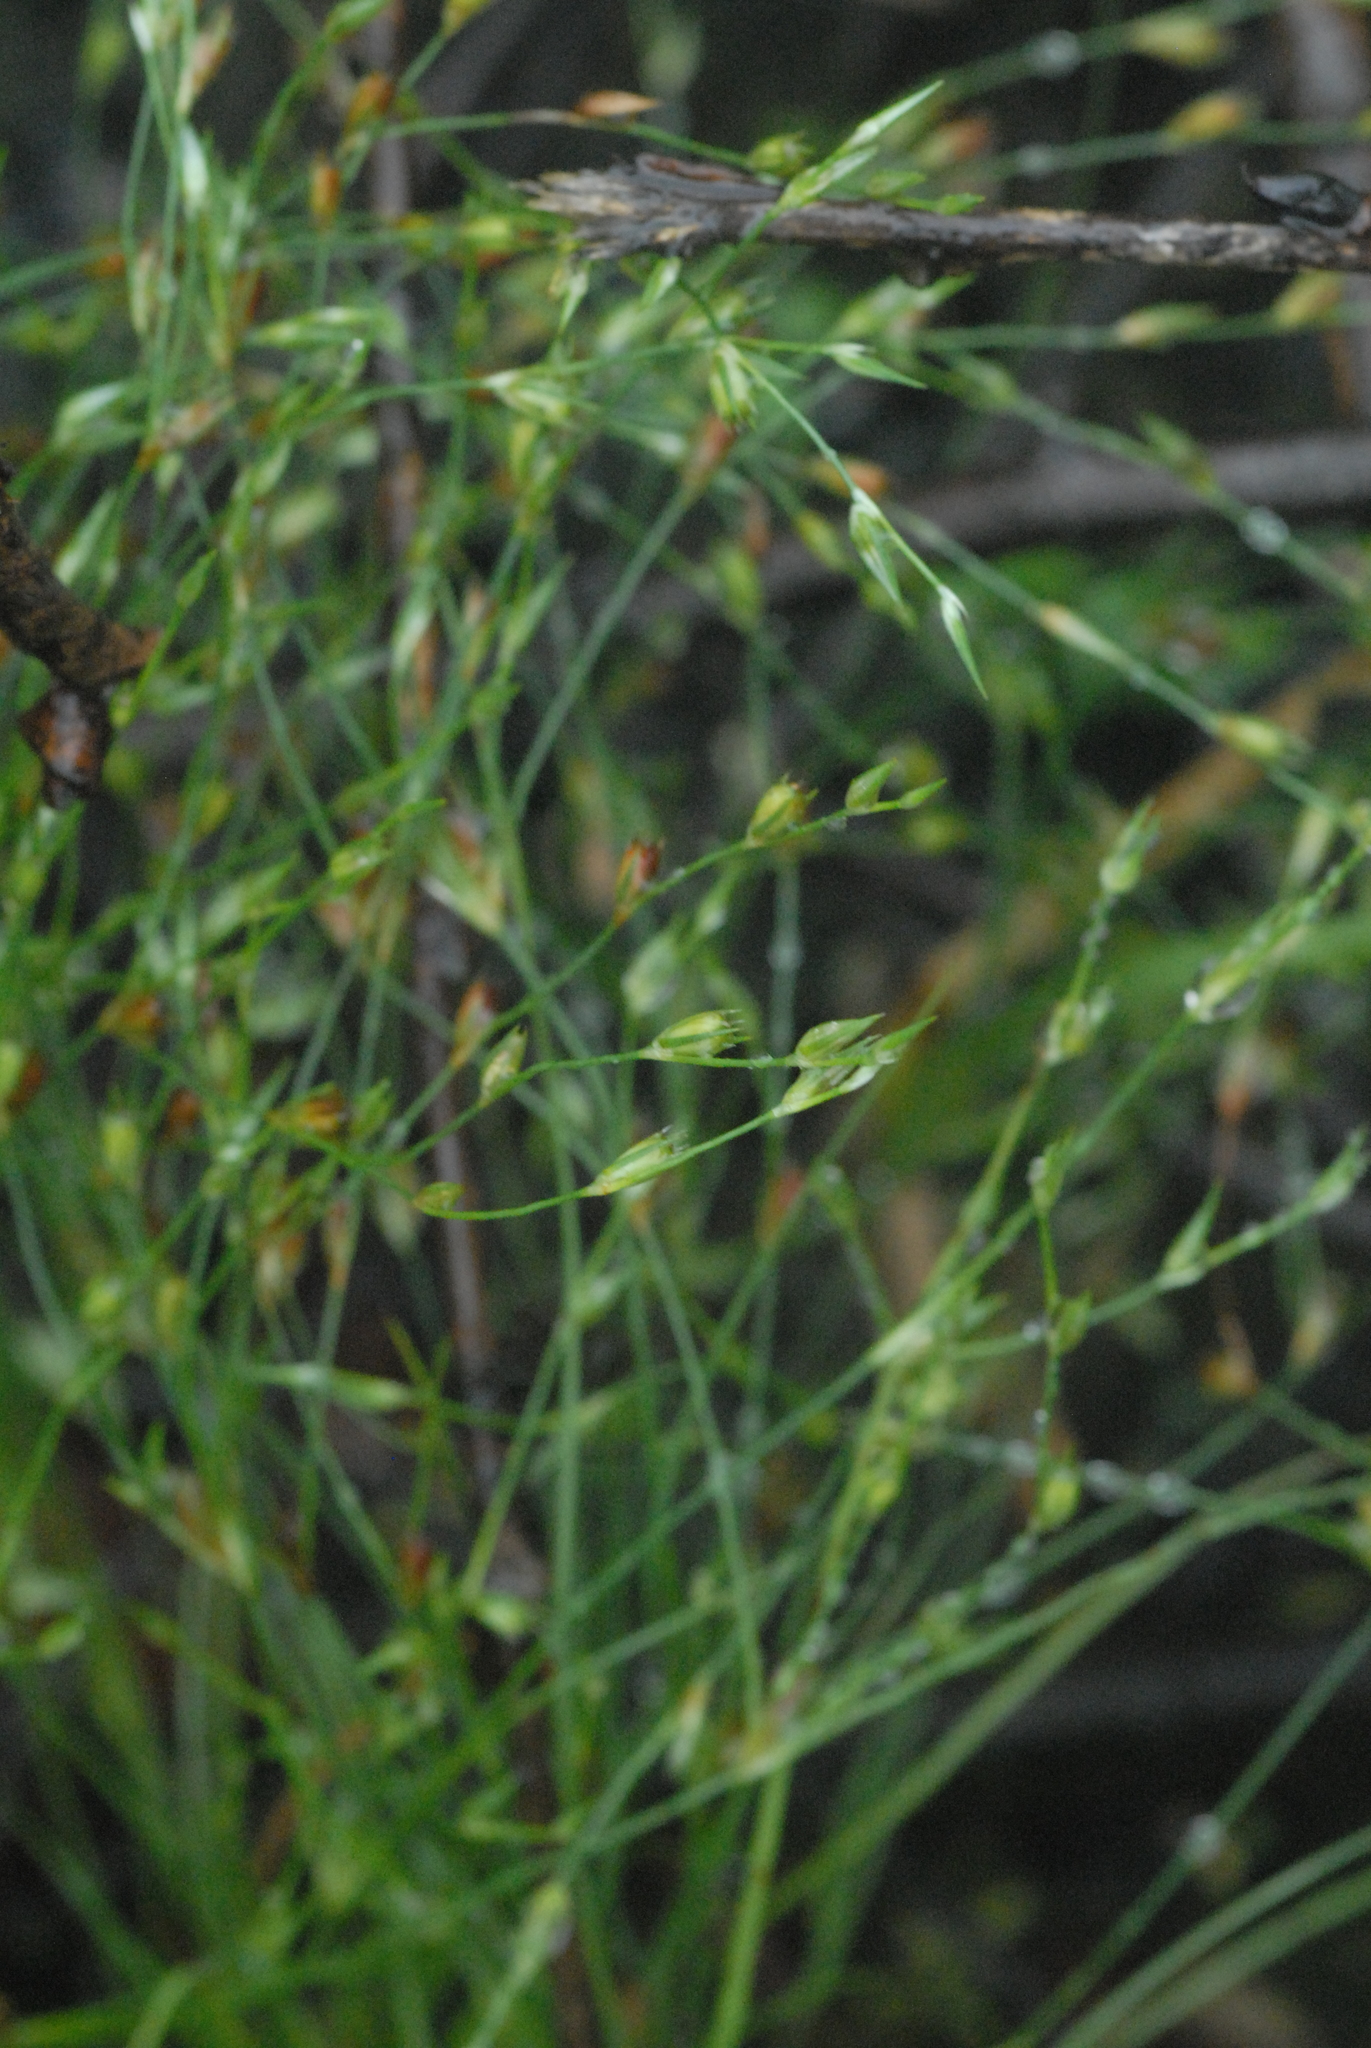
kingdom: Plantae
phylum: Tracheophyta
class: Liliopsida
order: Poales
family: Juncaceae
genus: Juncus
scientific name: Juncus bufonius
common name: Toad rush
